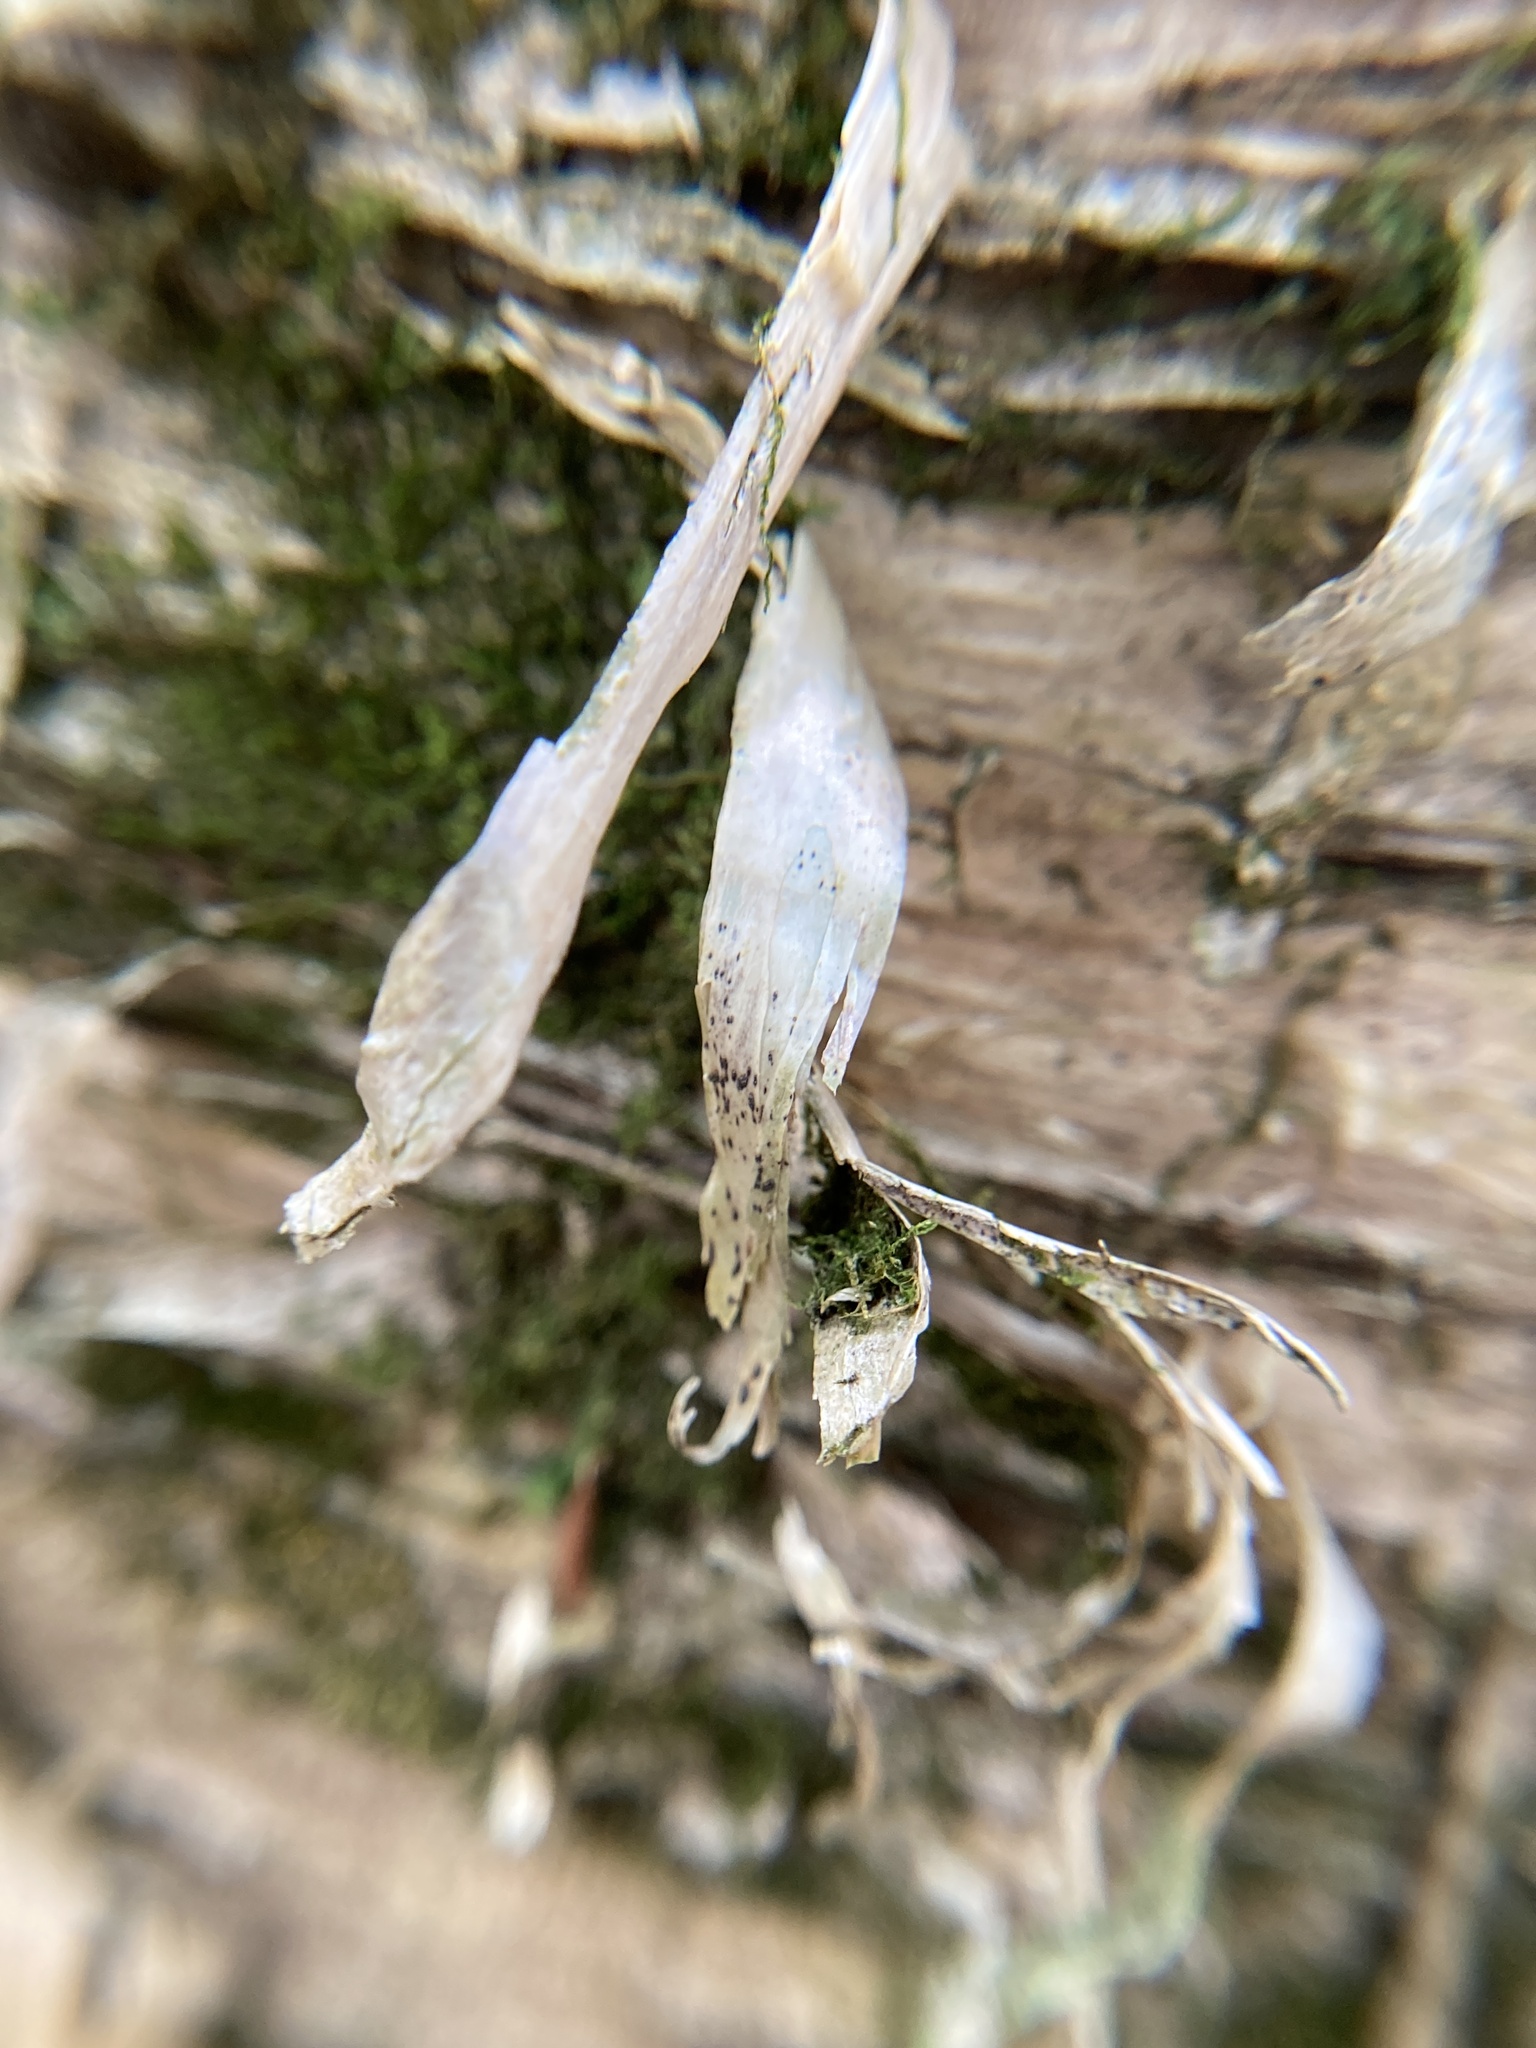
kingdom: Plantae
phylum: Tracheophyta
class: Magnoliopsida
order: Fagales
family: Betulaceae
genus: Betula
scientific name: Betula alleghaniensis
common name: Yellow birch
